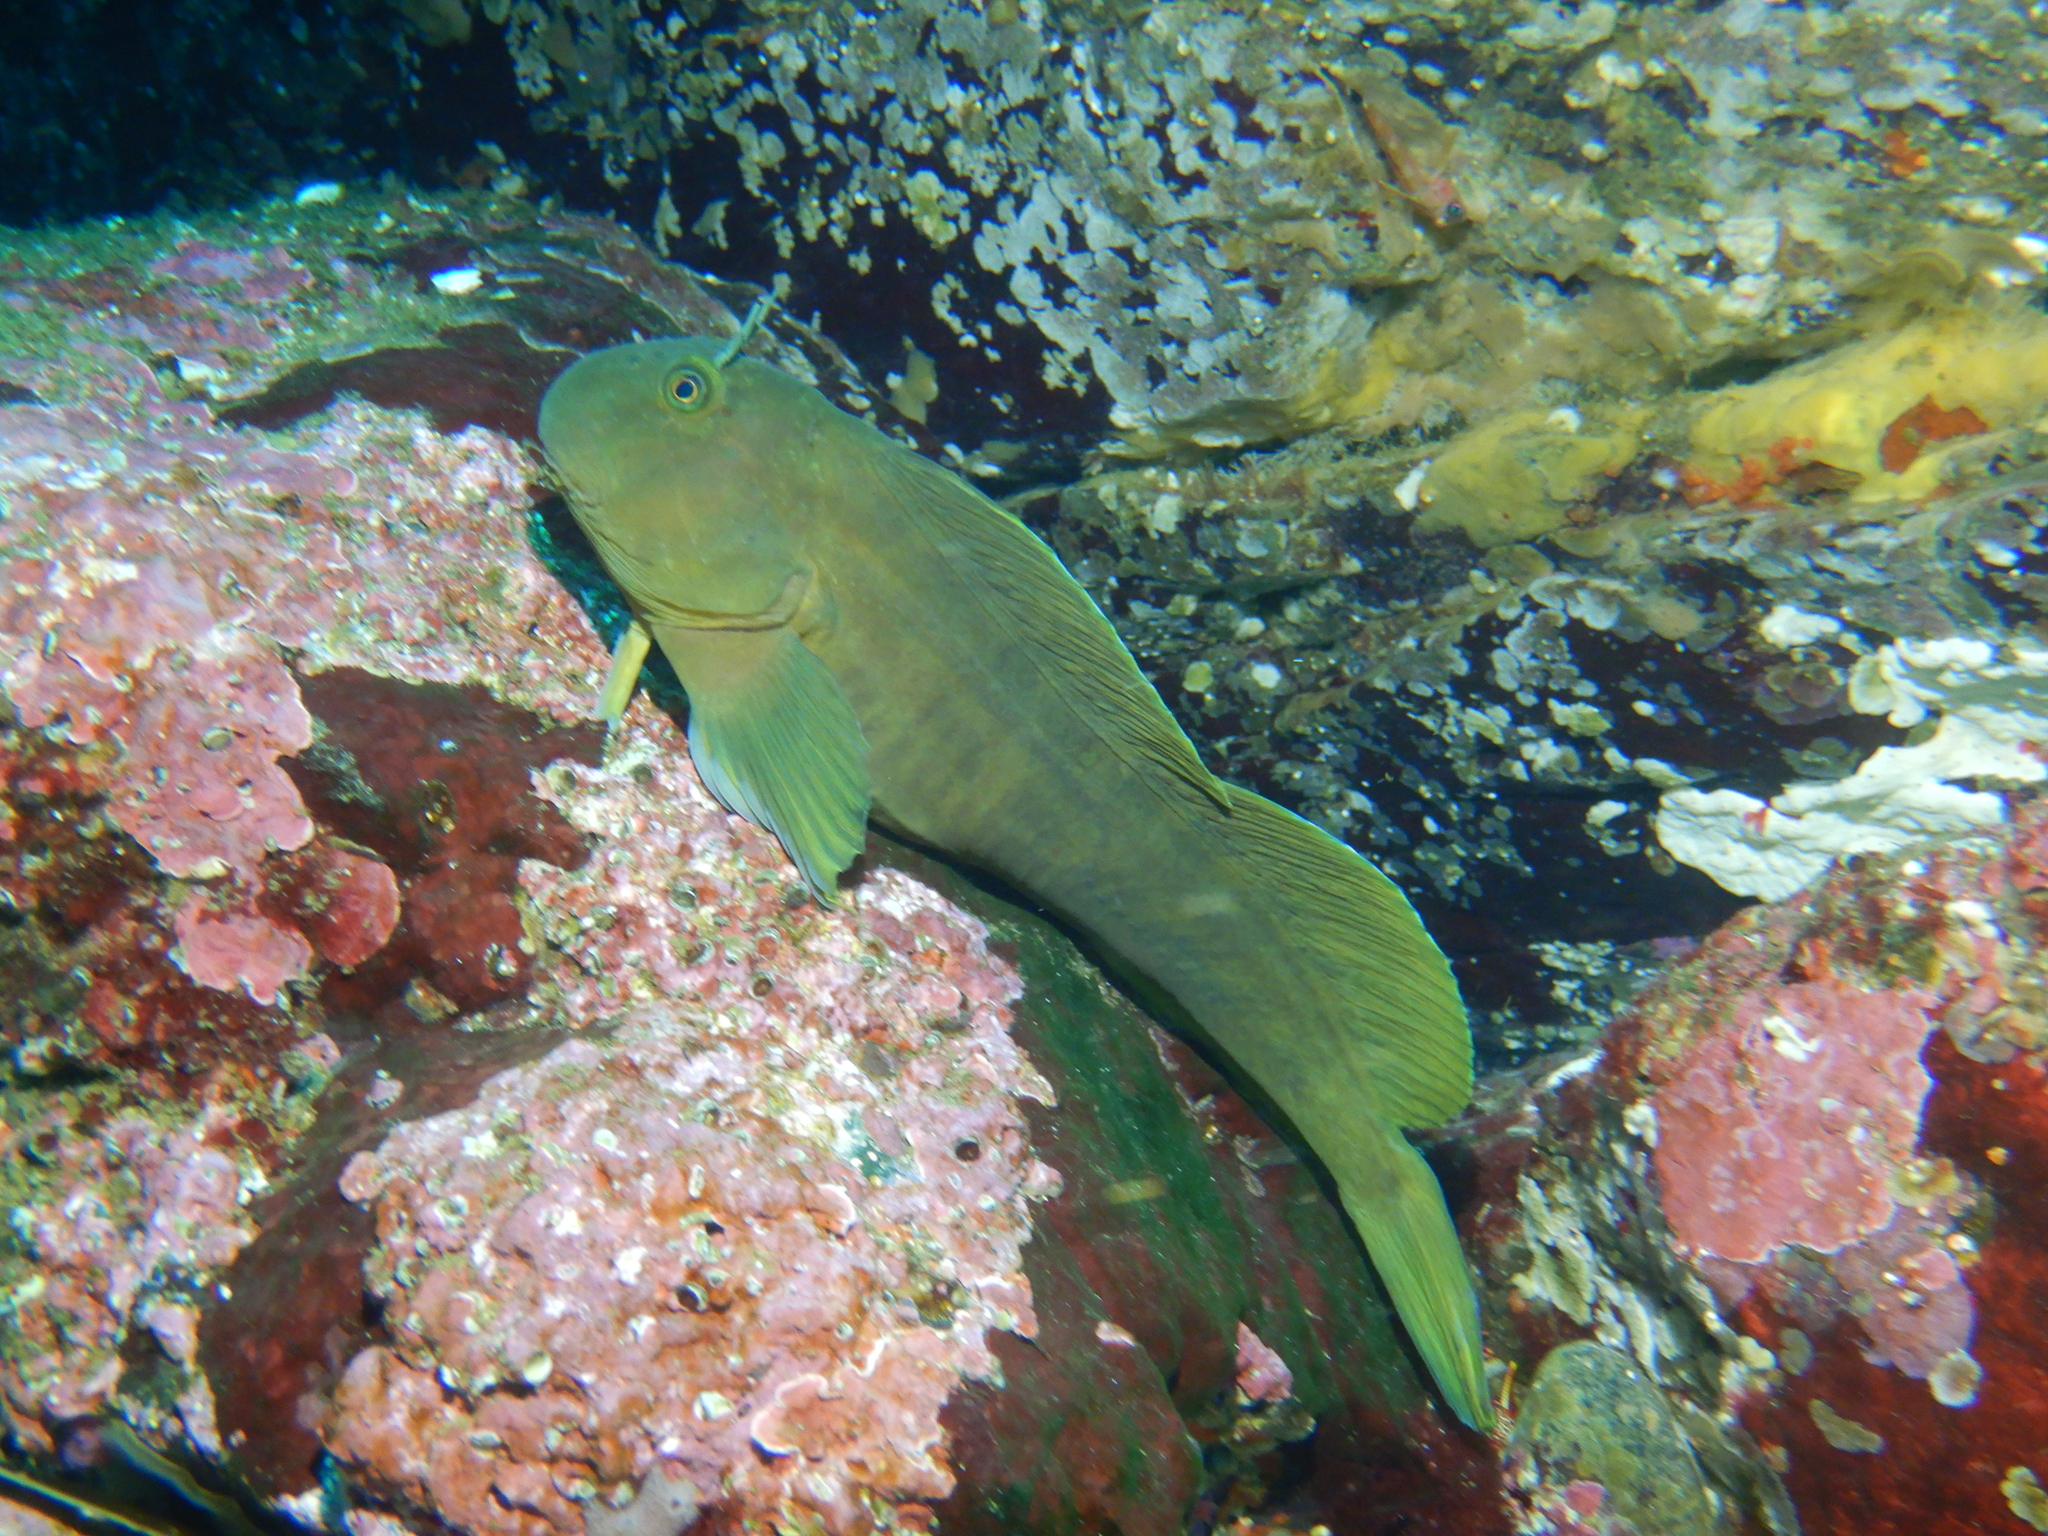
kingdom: Animalia
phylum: Chordata
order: Perciformes
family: Blenniidae
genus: Scartichthys
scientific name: Scartichthys viridis
